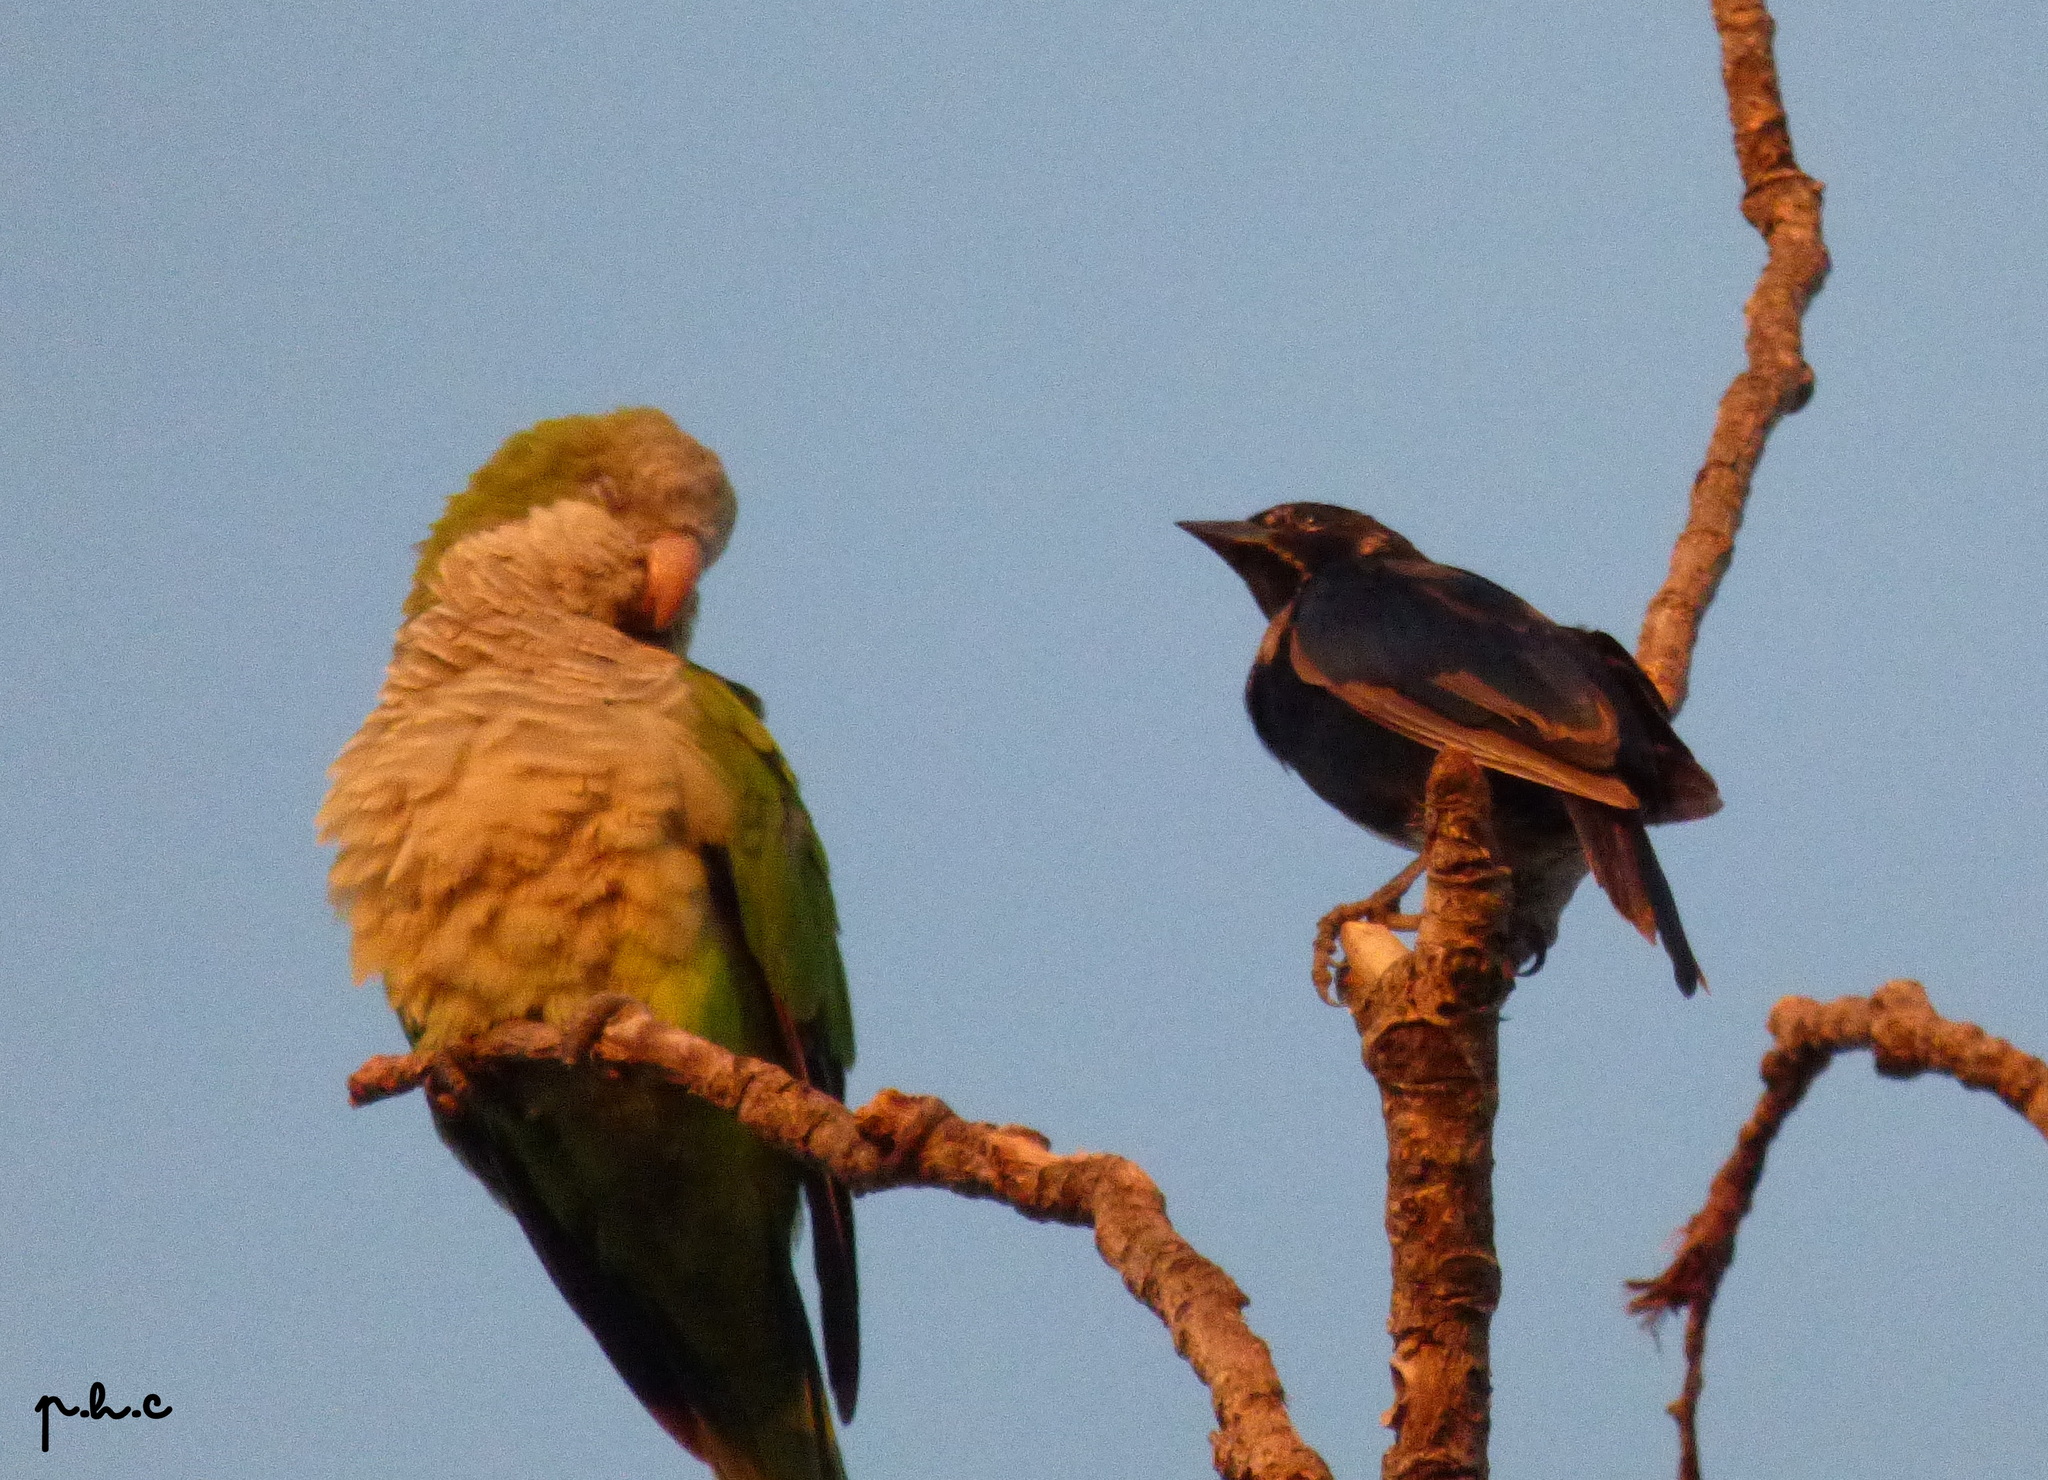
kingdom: Animalia
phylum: Chordata
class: Aves
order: Passeriformes
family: Icteridae
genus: Molothrus
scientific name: Molothrus rufoaxillaris
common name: Screaming cowbird
